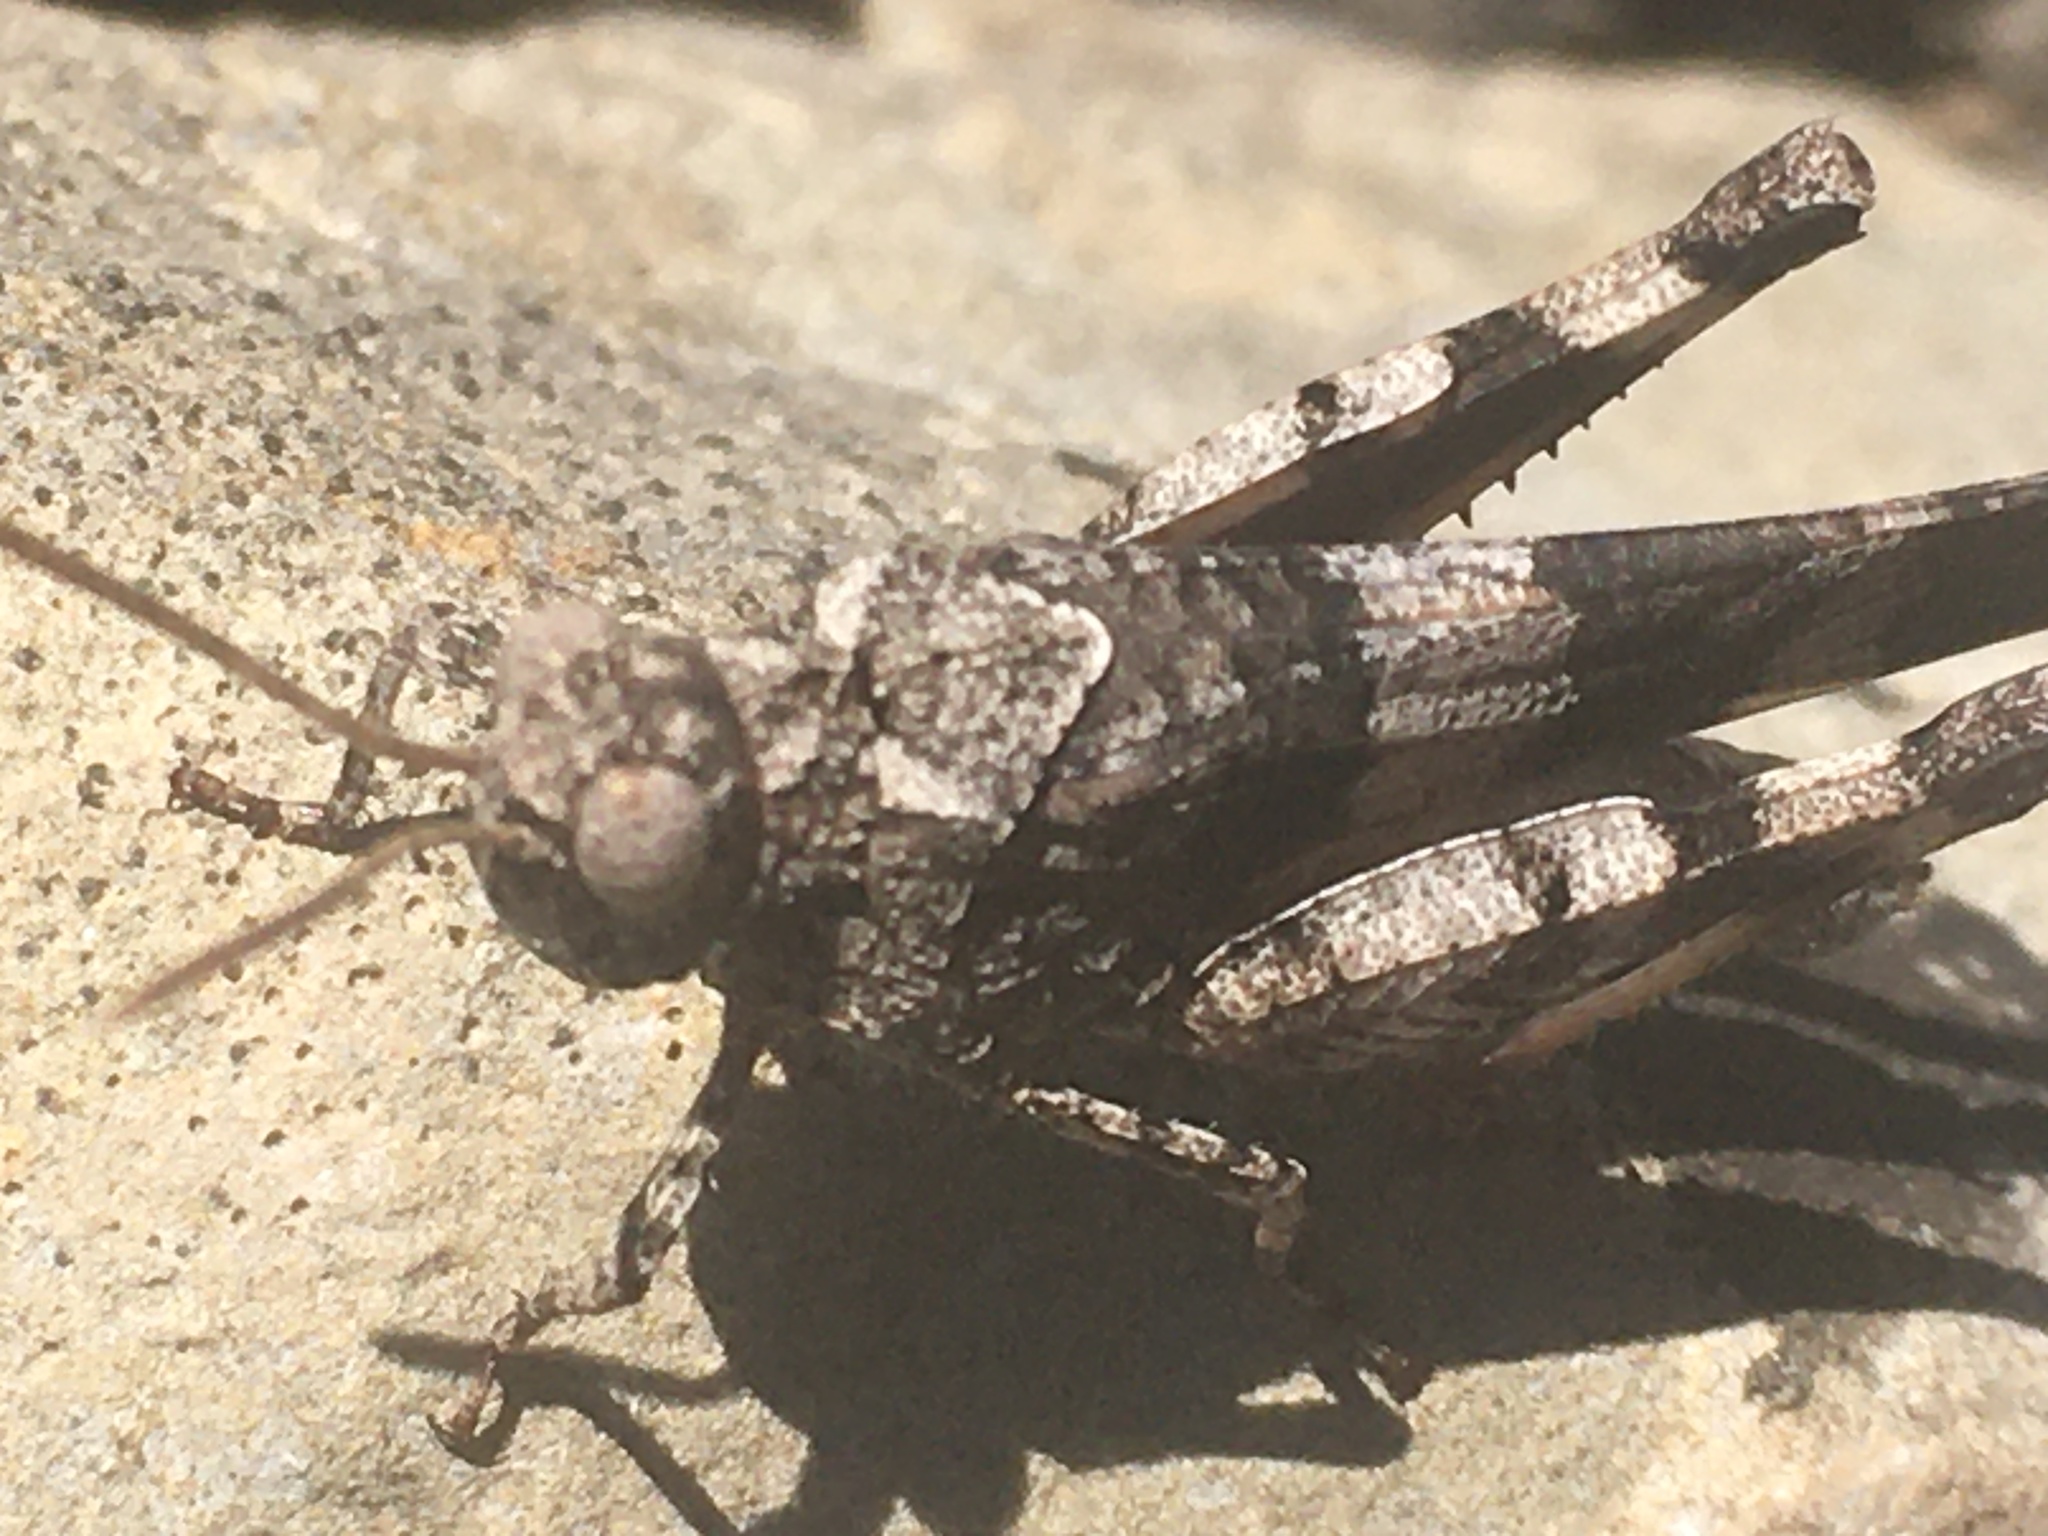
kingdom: Animalia
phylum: Arthropoda
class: Insecta
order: Orthoptera
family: Acrididae
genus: Oedipoda
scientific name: Oedipoda caerulescens
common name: Blue-winged grasshopper
